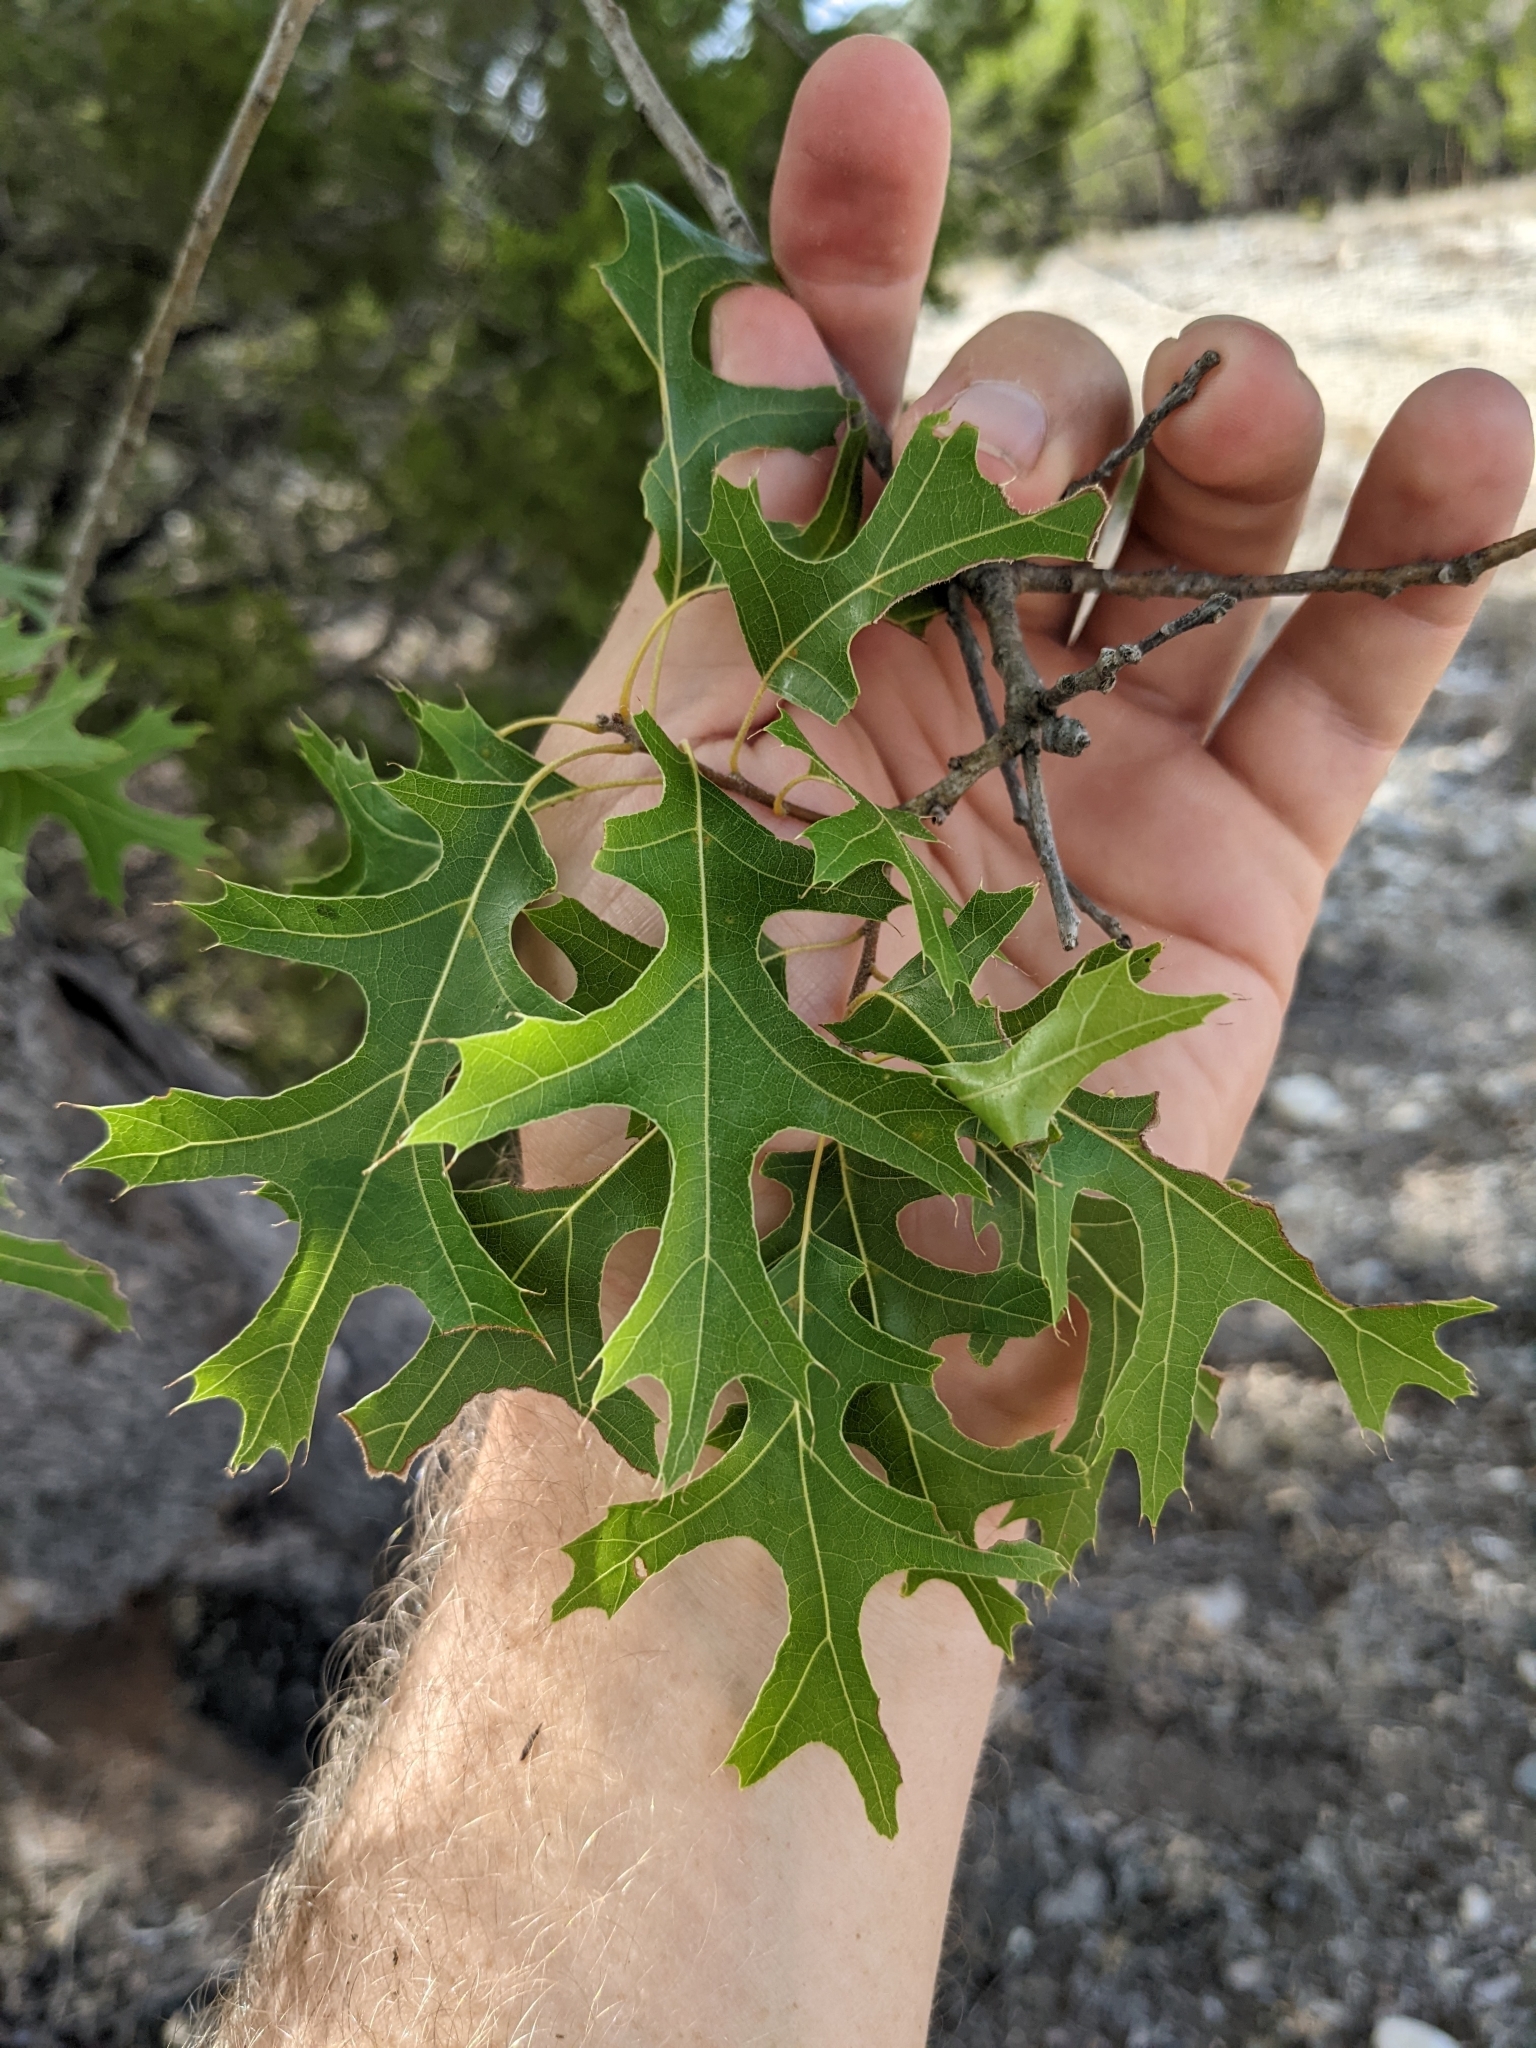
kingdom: Plantae
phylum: Tracheophyta
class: Magnoliopsida
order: Fagales
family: Fagaceae
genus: Quercus
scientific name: Quercus buckleyi
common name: Buckley oak
